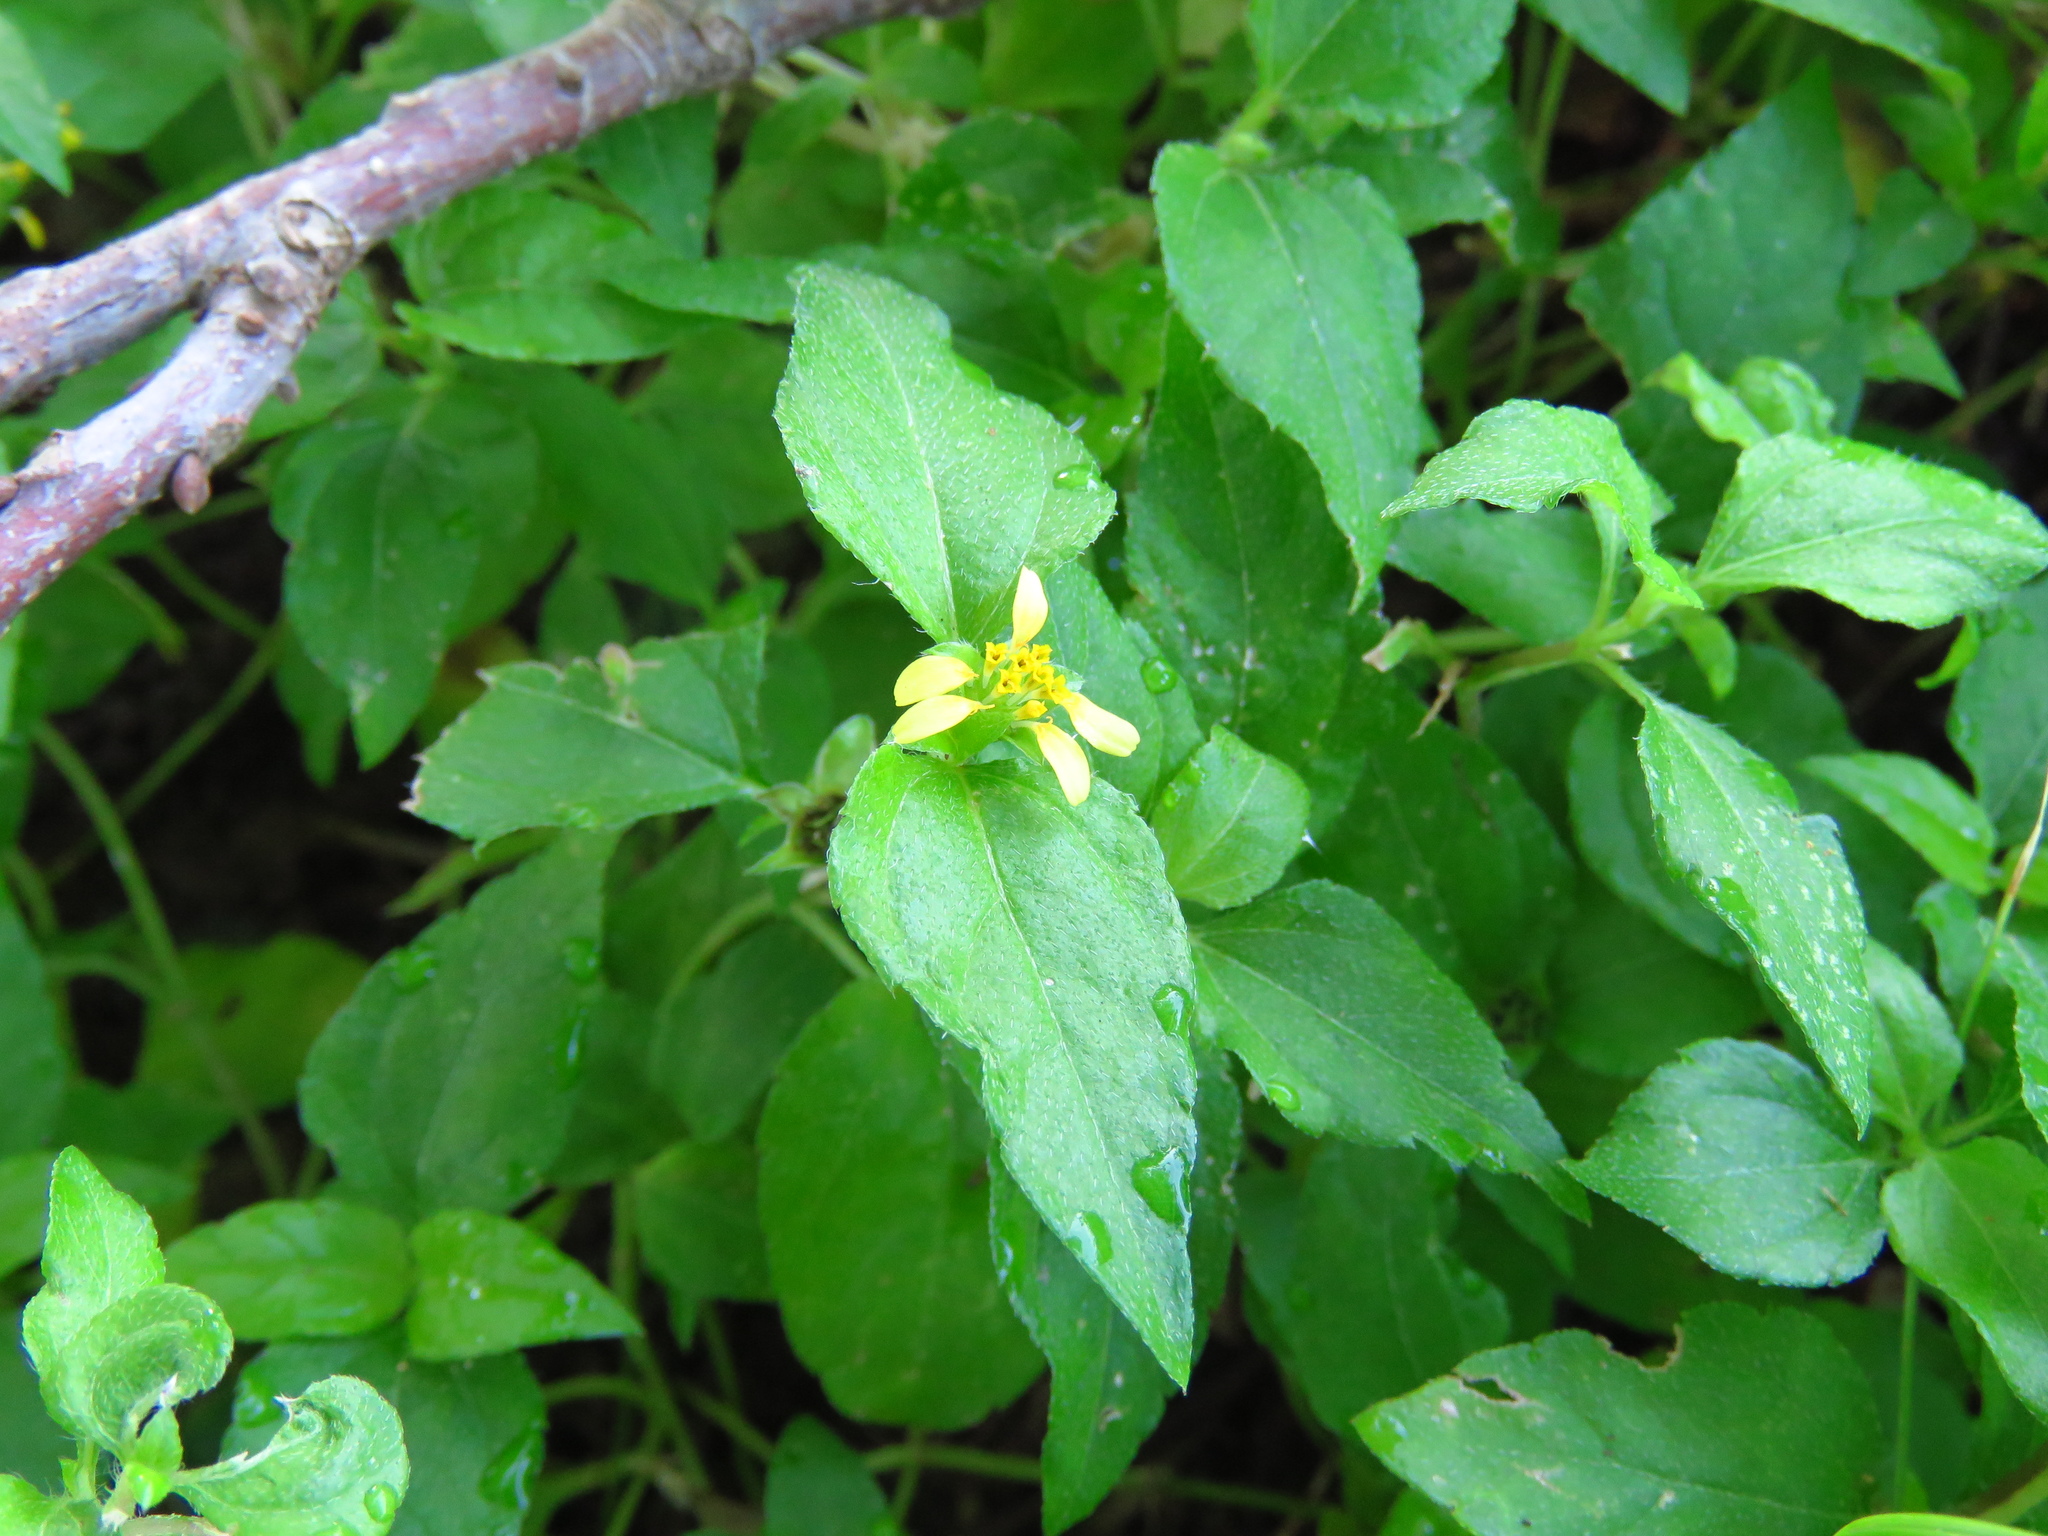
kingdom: Plantae
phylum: Tracheophyta
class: Magnoliopsida
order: Asterales
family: Asteraceae
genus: Calyptocarpus
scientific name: Calyptocarpus vialis
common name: Straggler daisy
